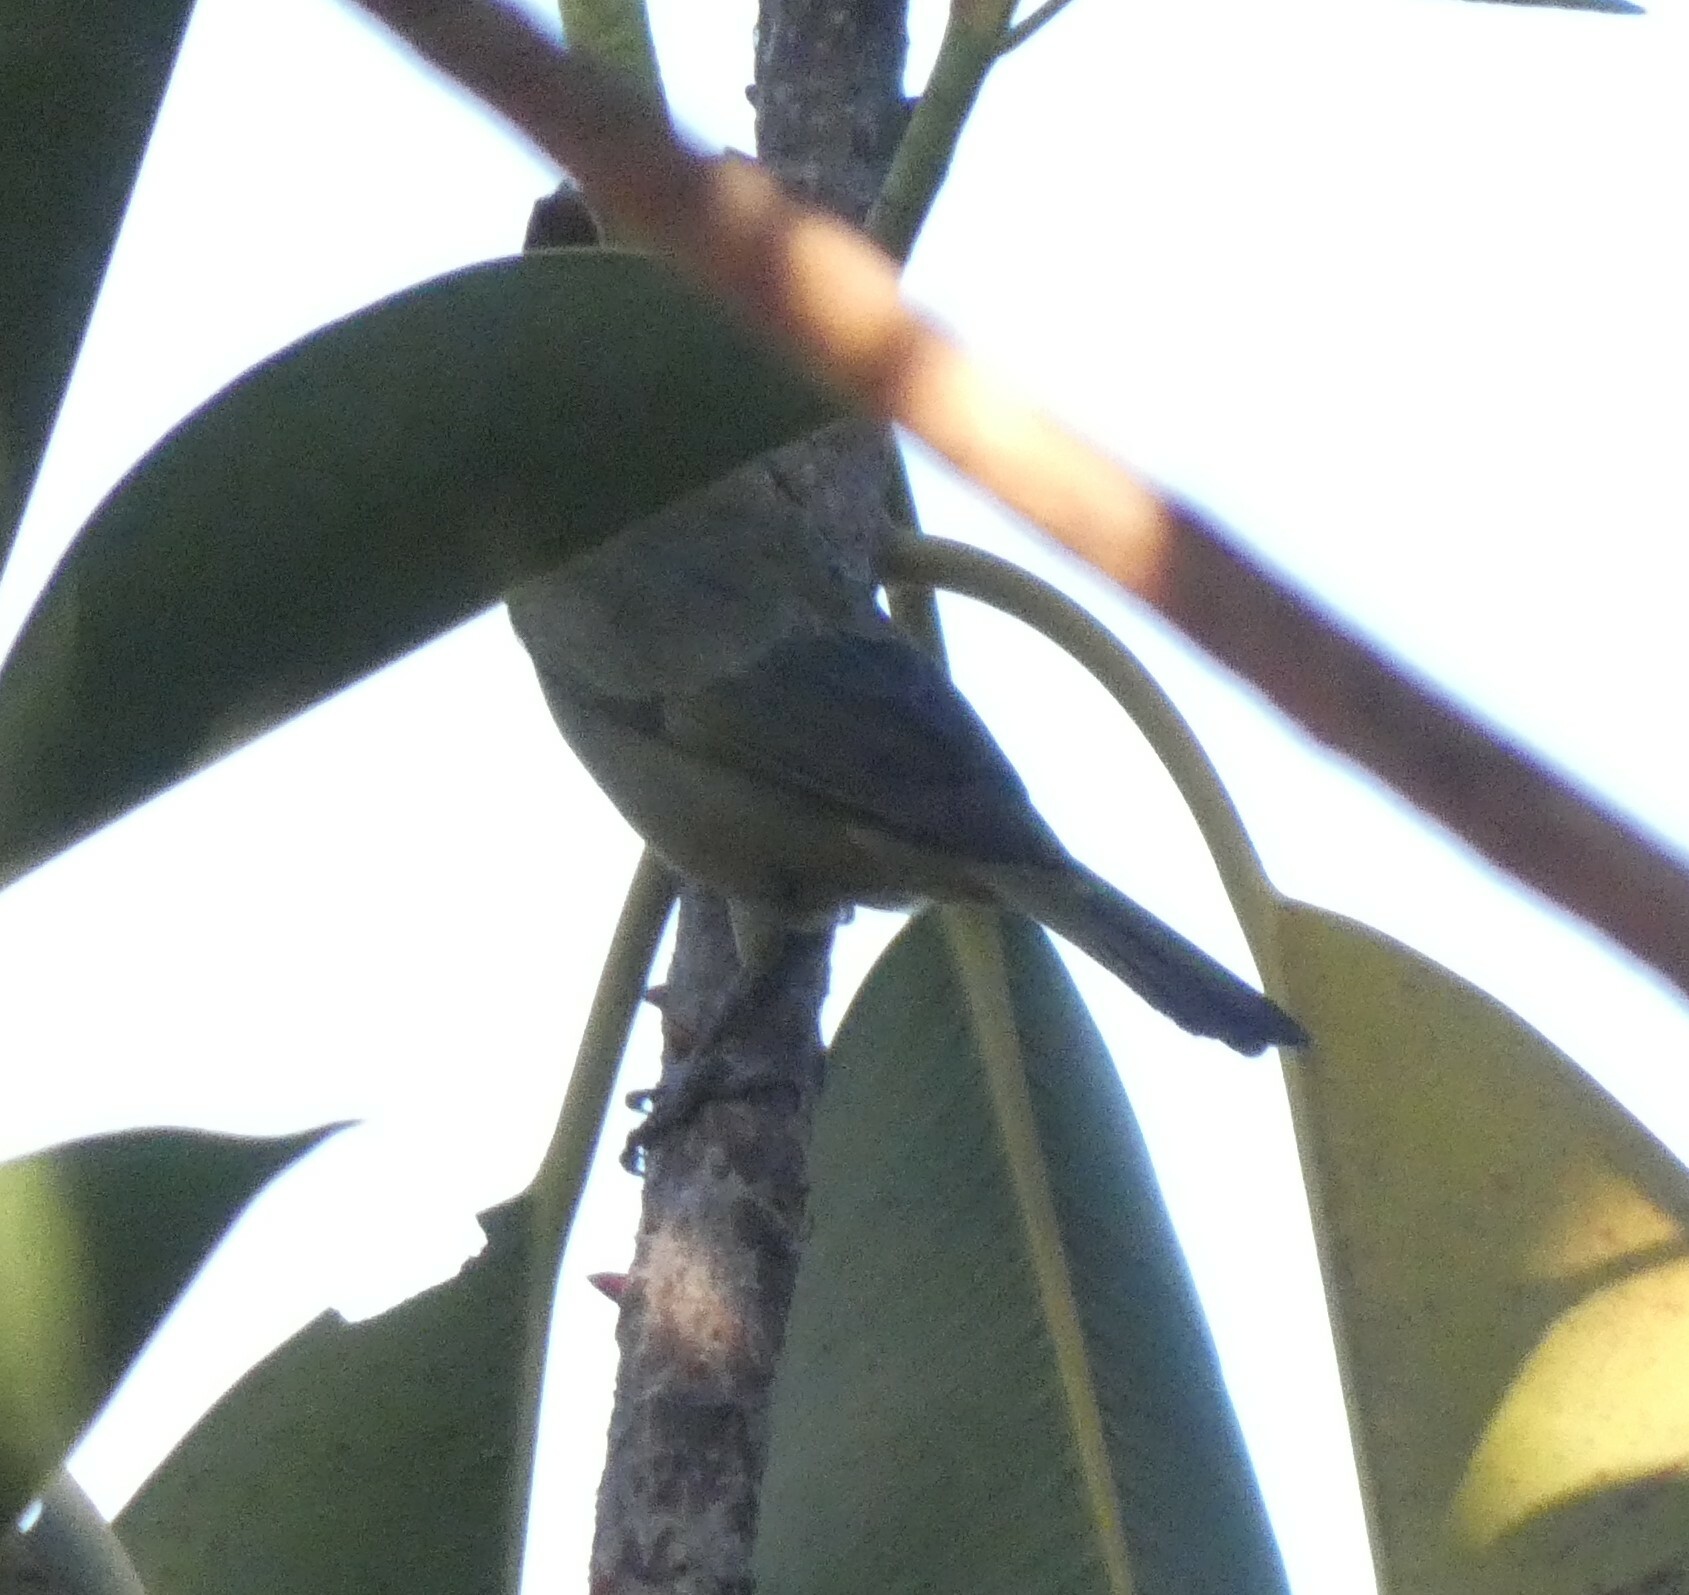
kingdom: Animalia
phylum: Chordata
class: Aves
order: Passeriformes
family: Thraupidae
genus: Thraupis
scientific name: Thraupis palmarum
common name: Palm tanager
